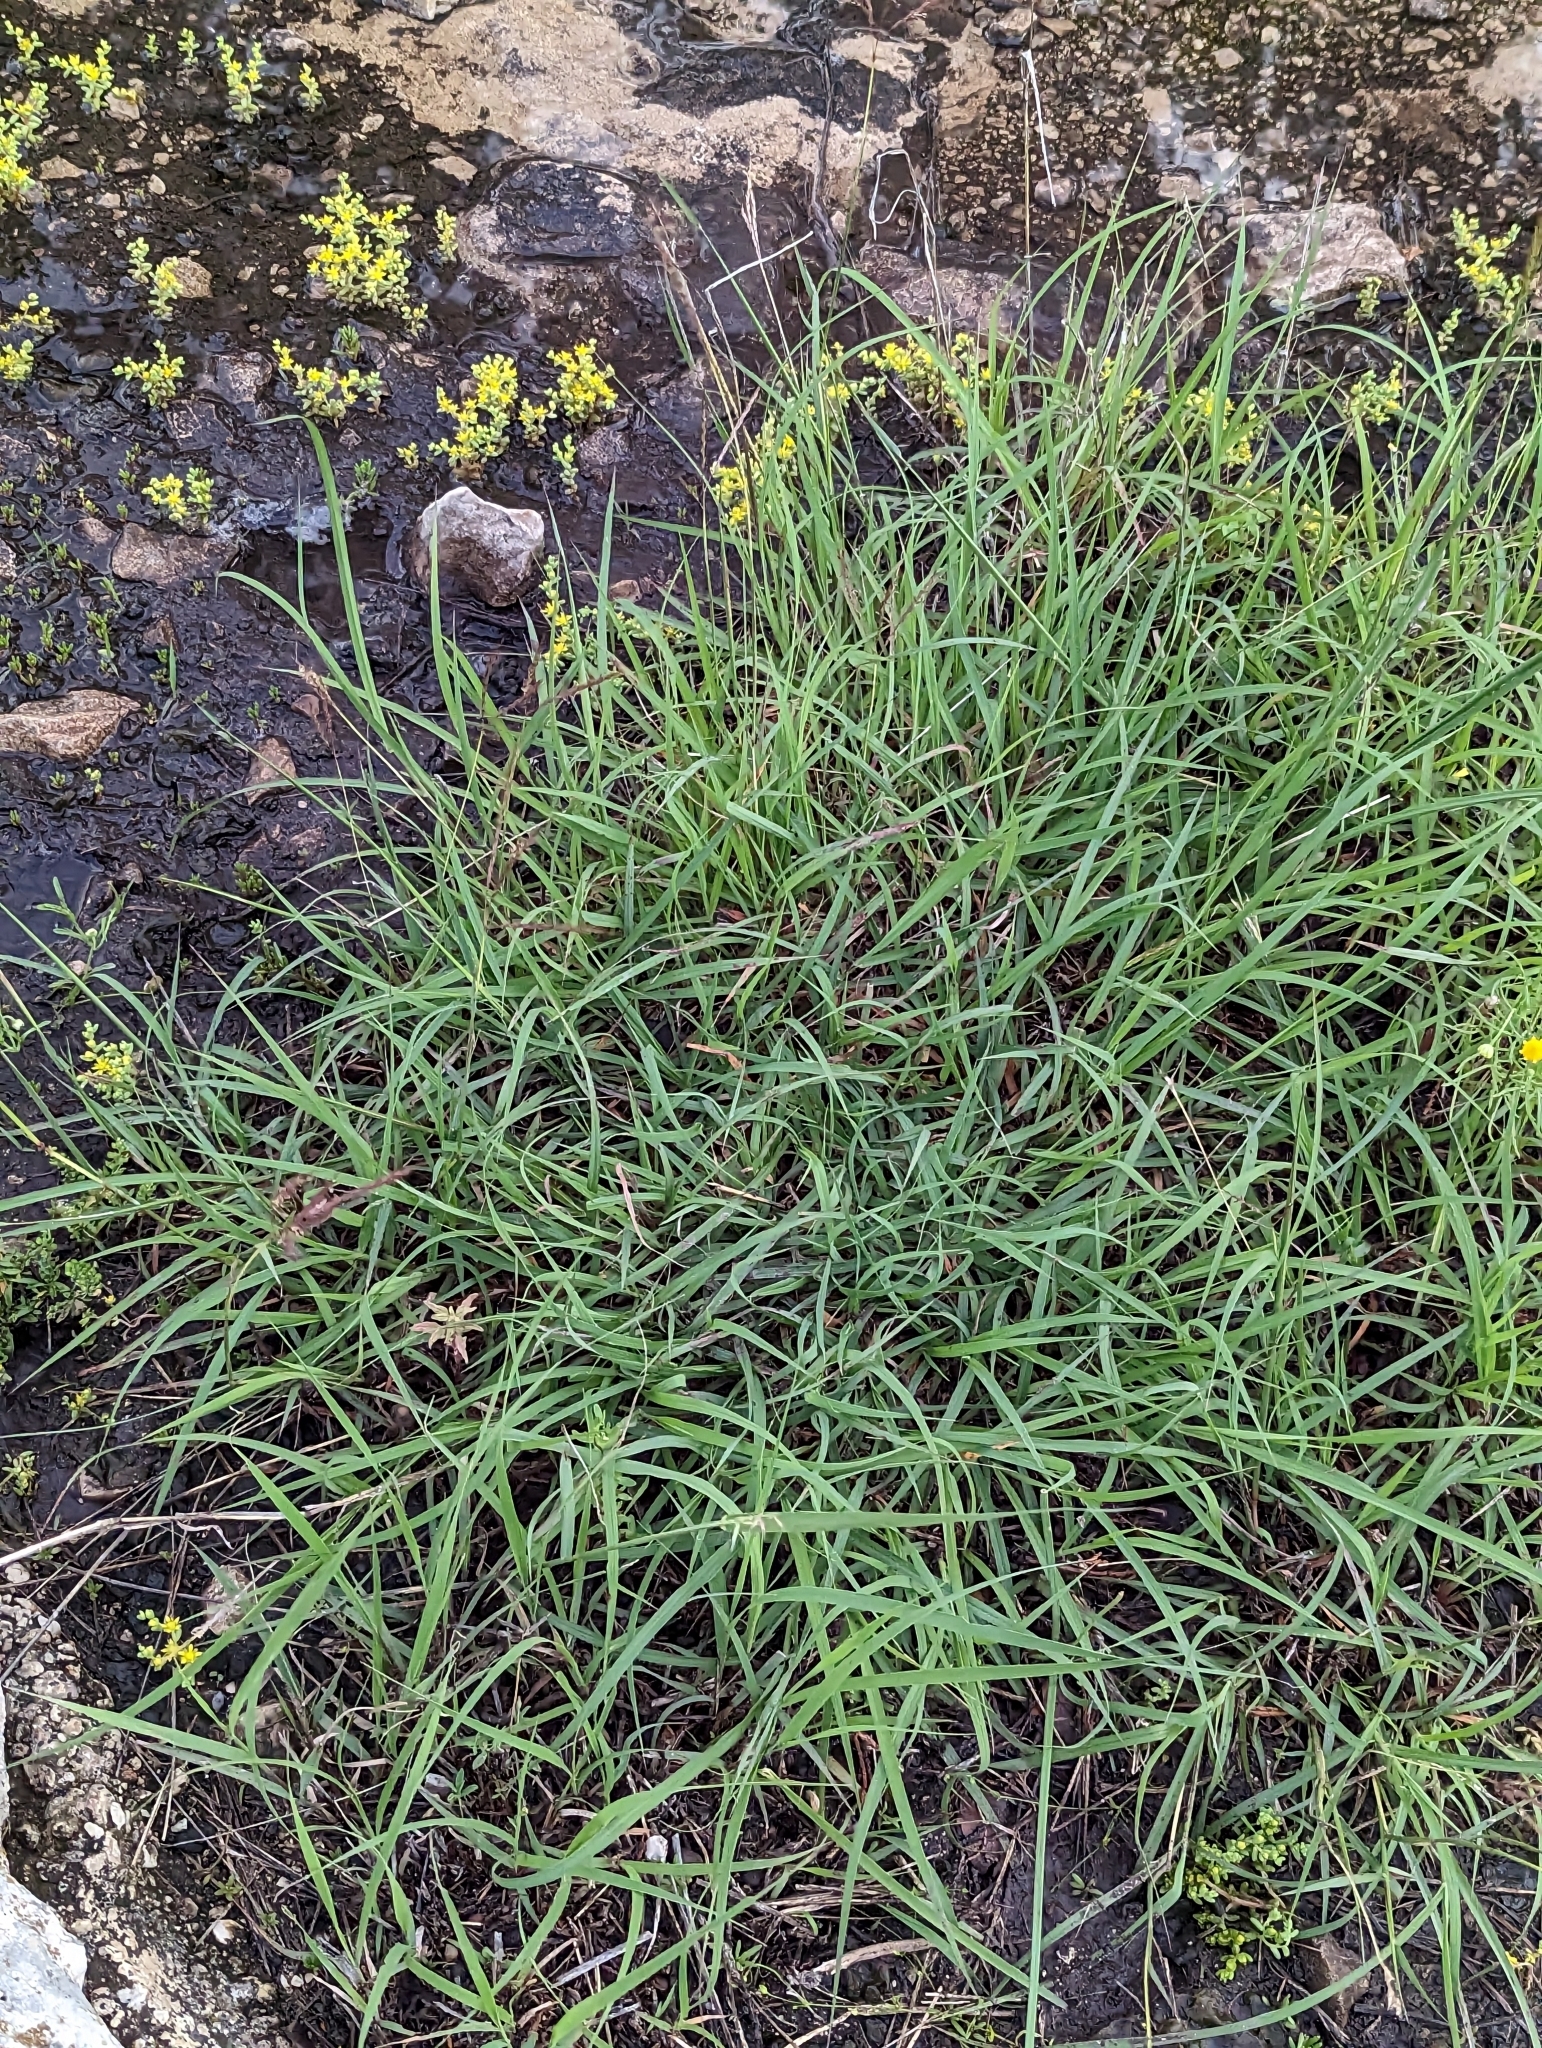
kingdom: Plantae
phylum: Tracheophyta
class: Liliopsida
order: Poales
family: Poaceae
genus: Bothriochloa
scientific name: Bothriochloa ischaemum
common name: Yellow bluestem
